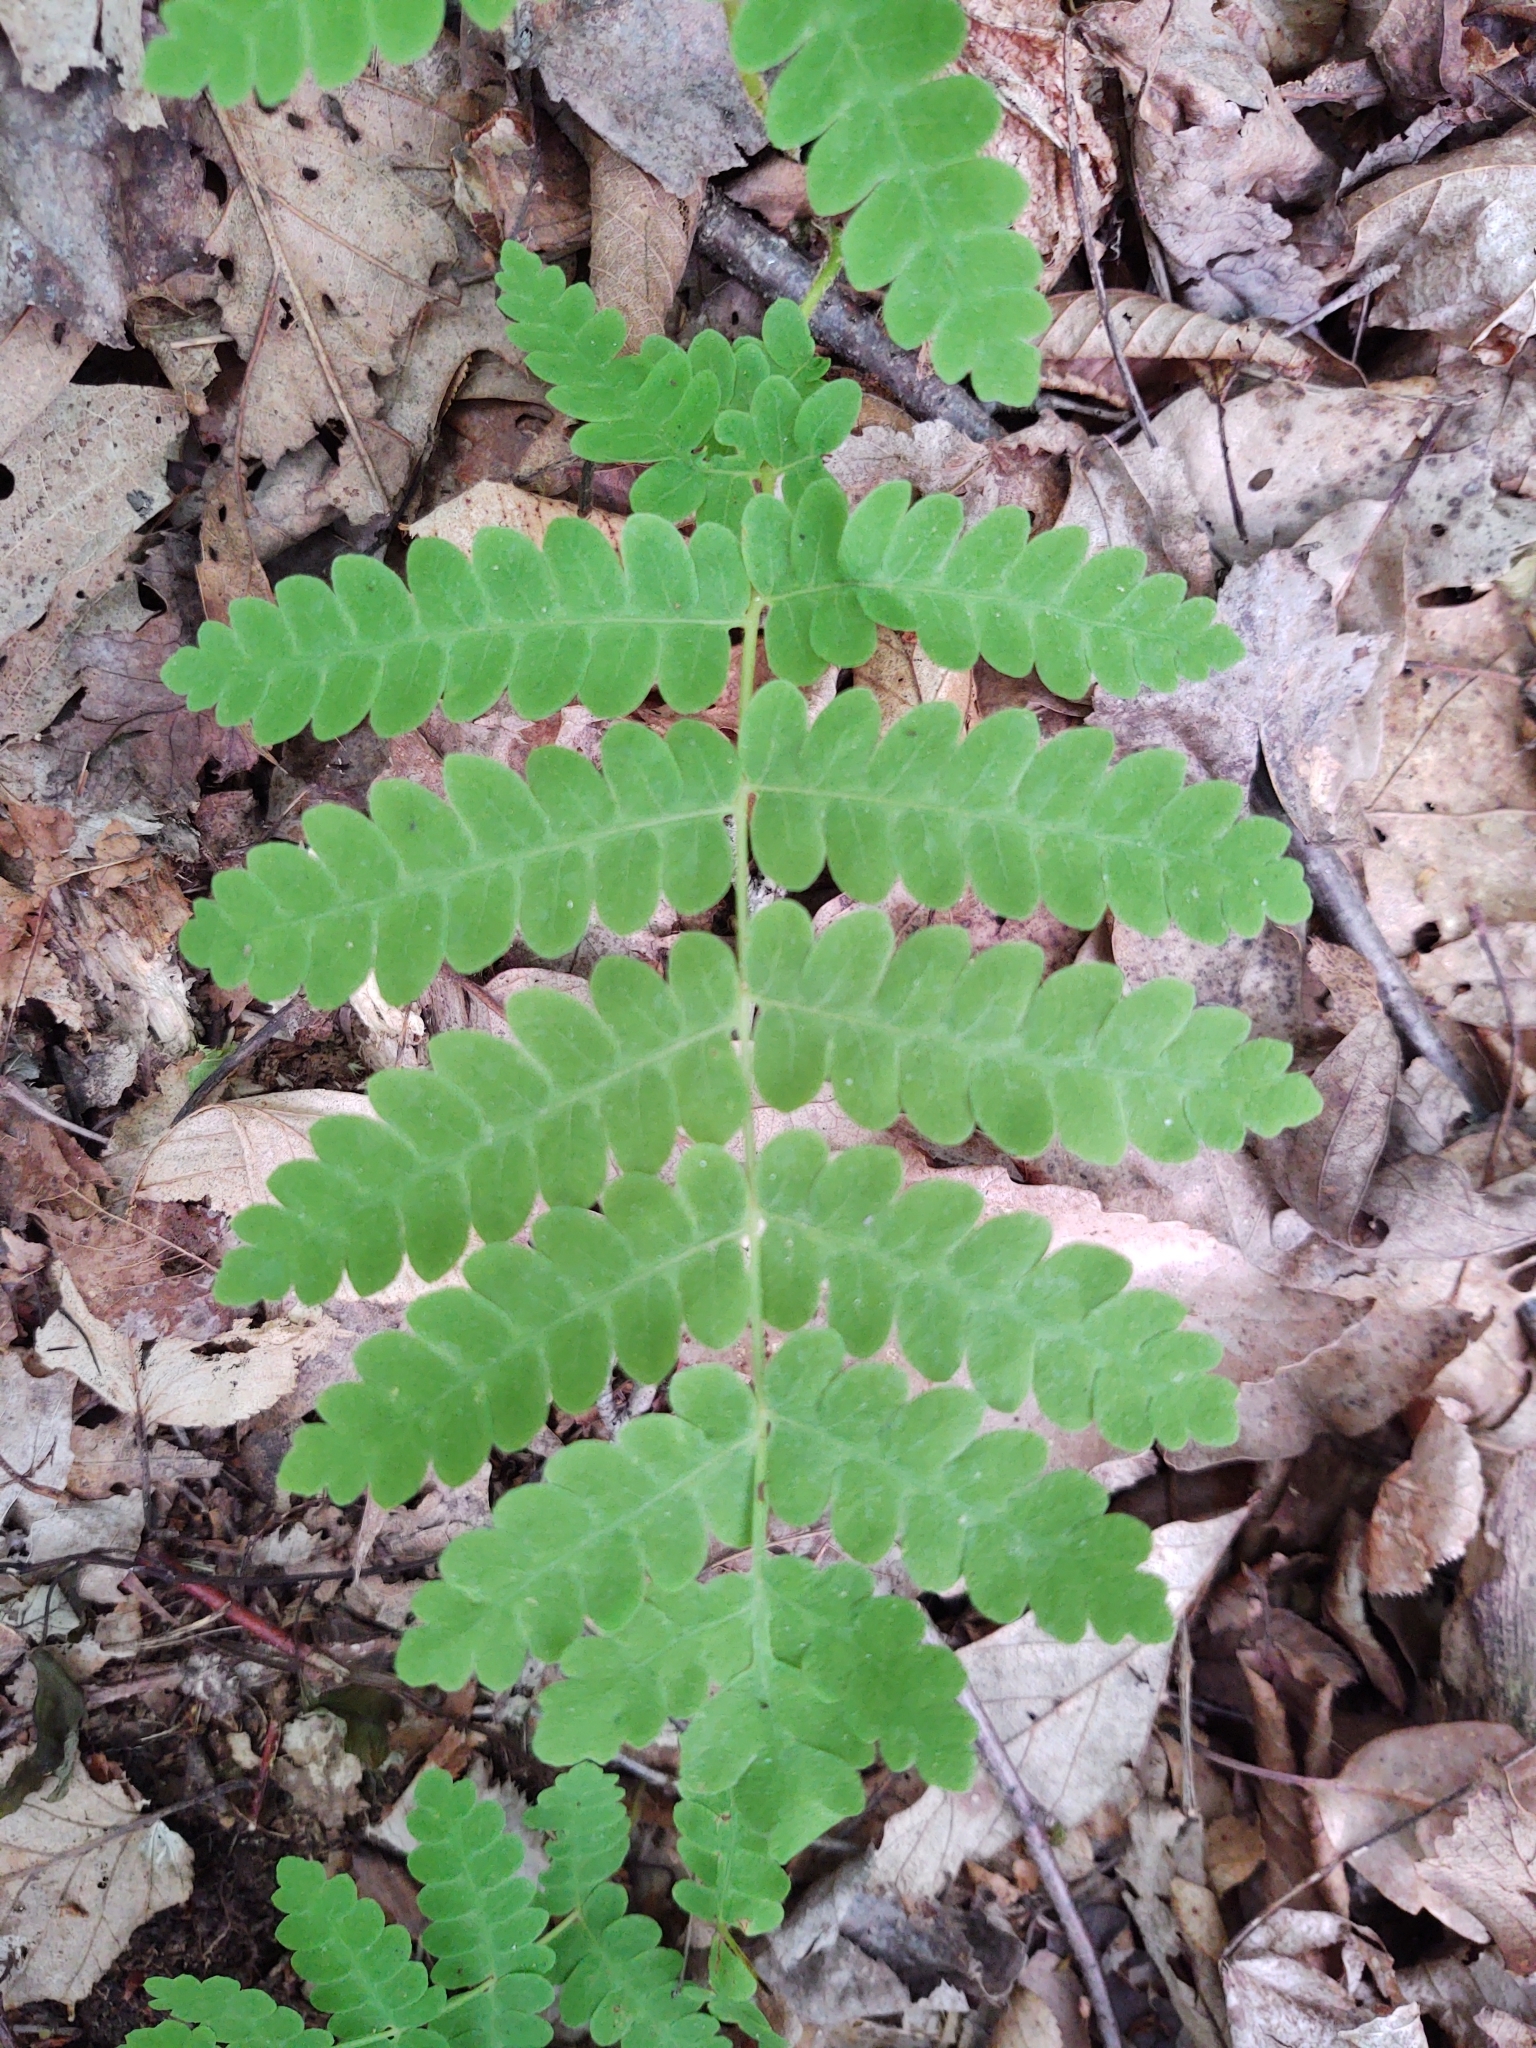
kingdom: Plantae
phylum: Tracheophyta
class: Polypodiopsida
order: Osmundales
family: Osmundaceae
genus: Claytosmunda
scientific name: Claytosmunda claytoniana
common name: Clayton's fern
